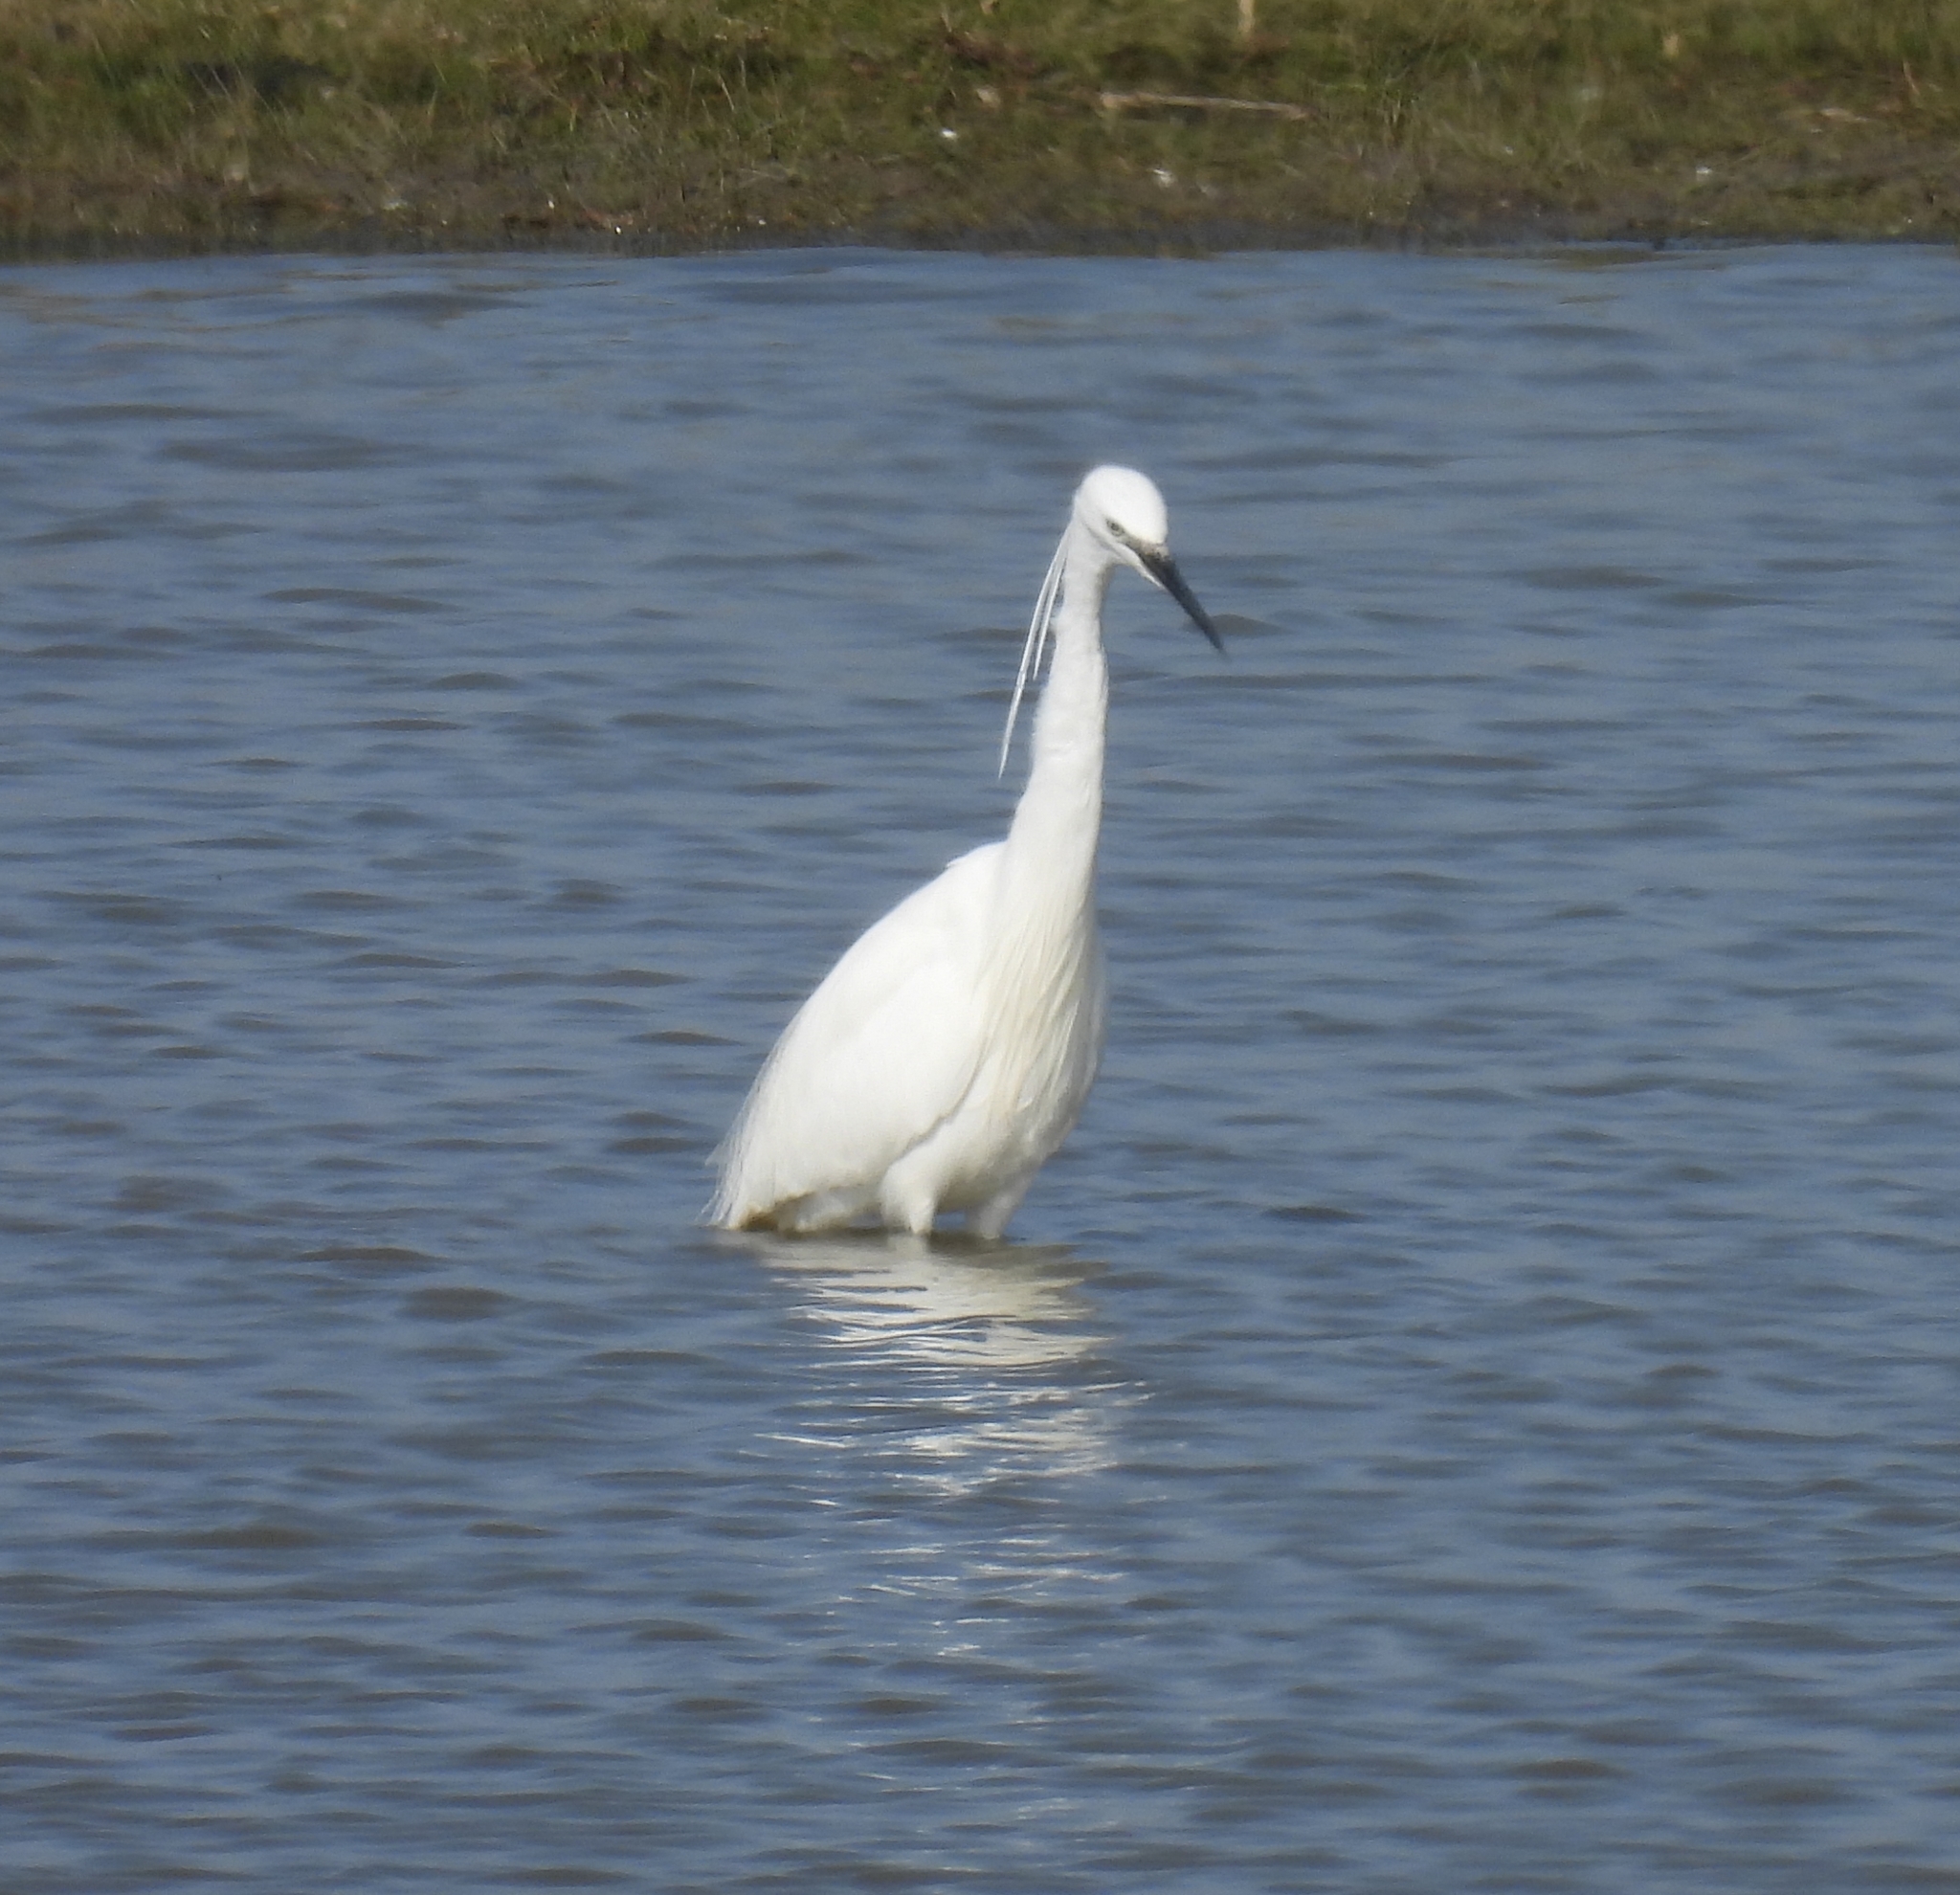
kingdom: Animalia
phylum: Chordata
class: Aves
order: Pelecaniformes
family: Ardeidae
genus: Egretta
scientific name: Egretta garzetta
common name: Little egret
